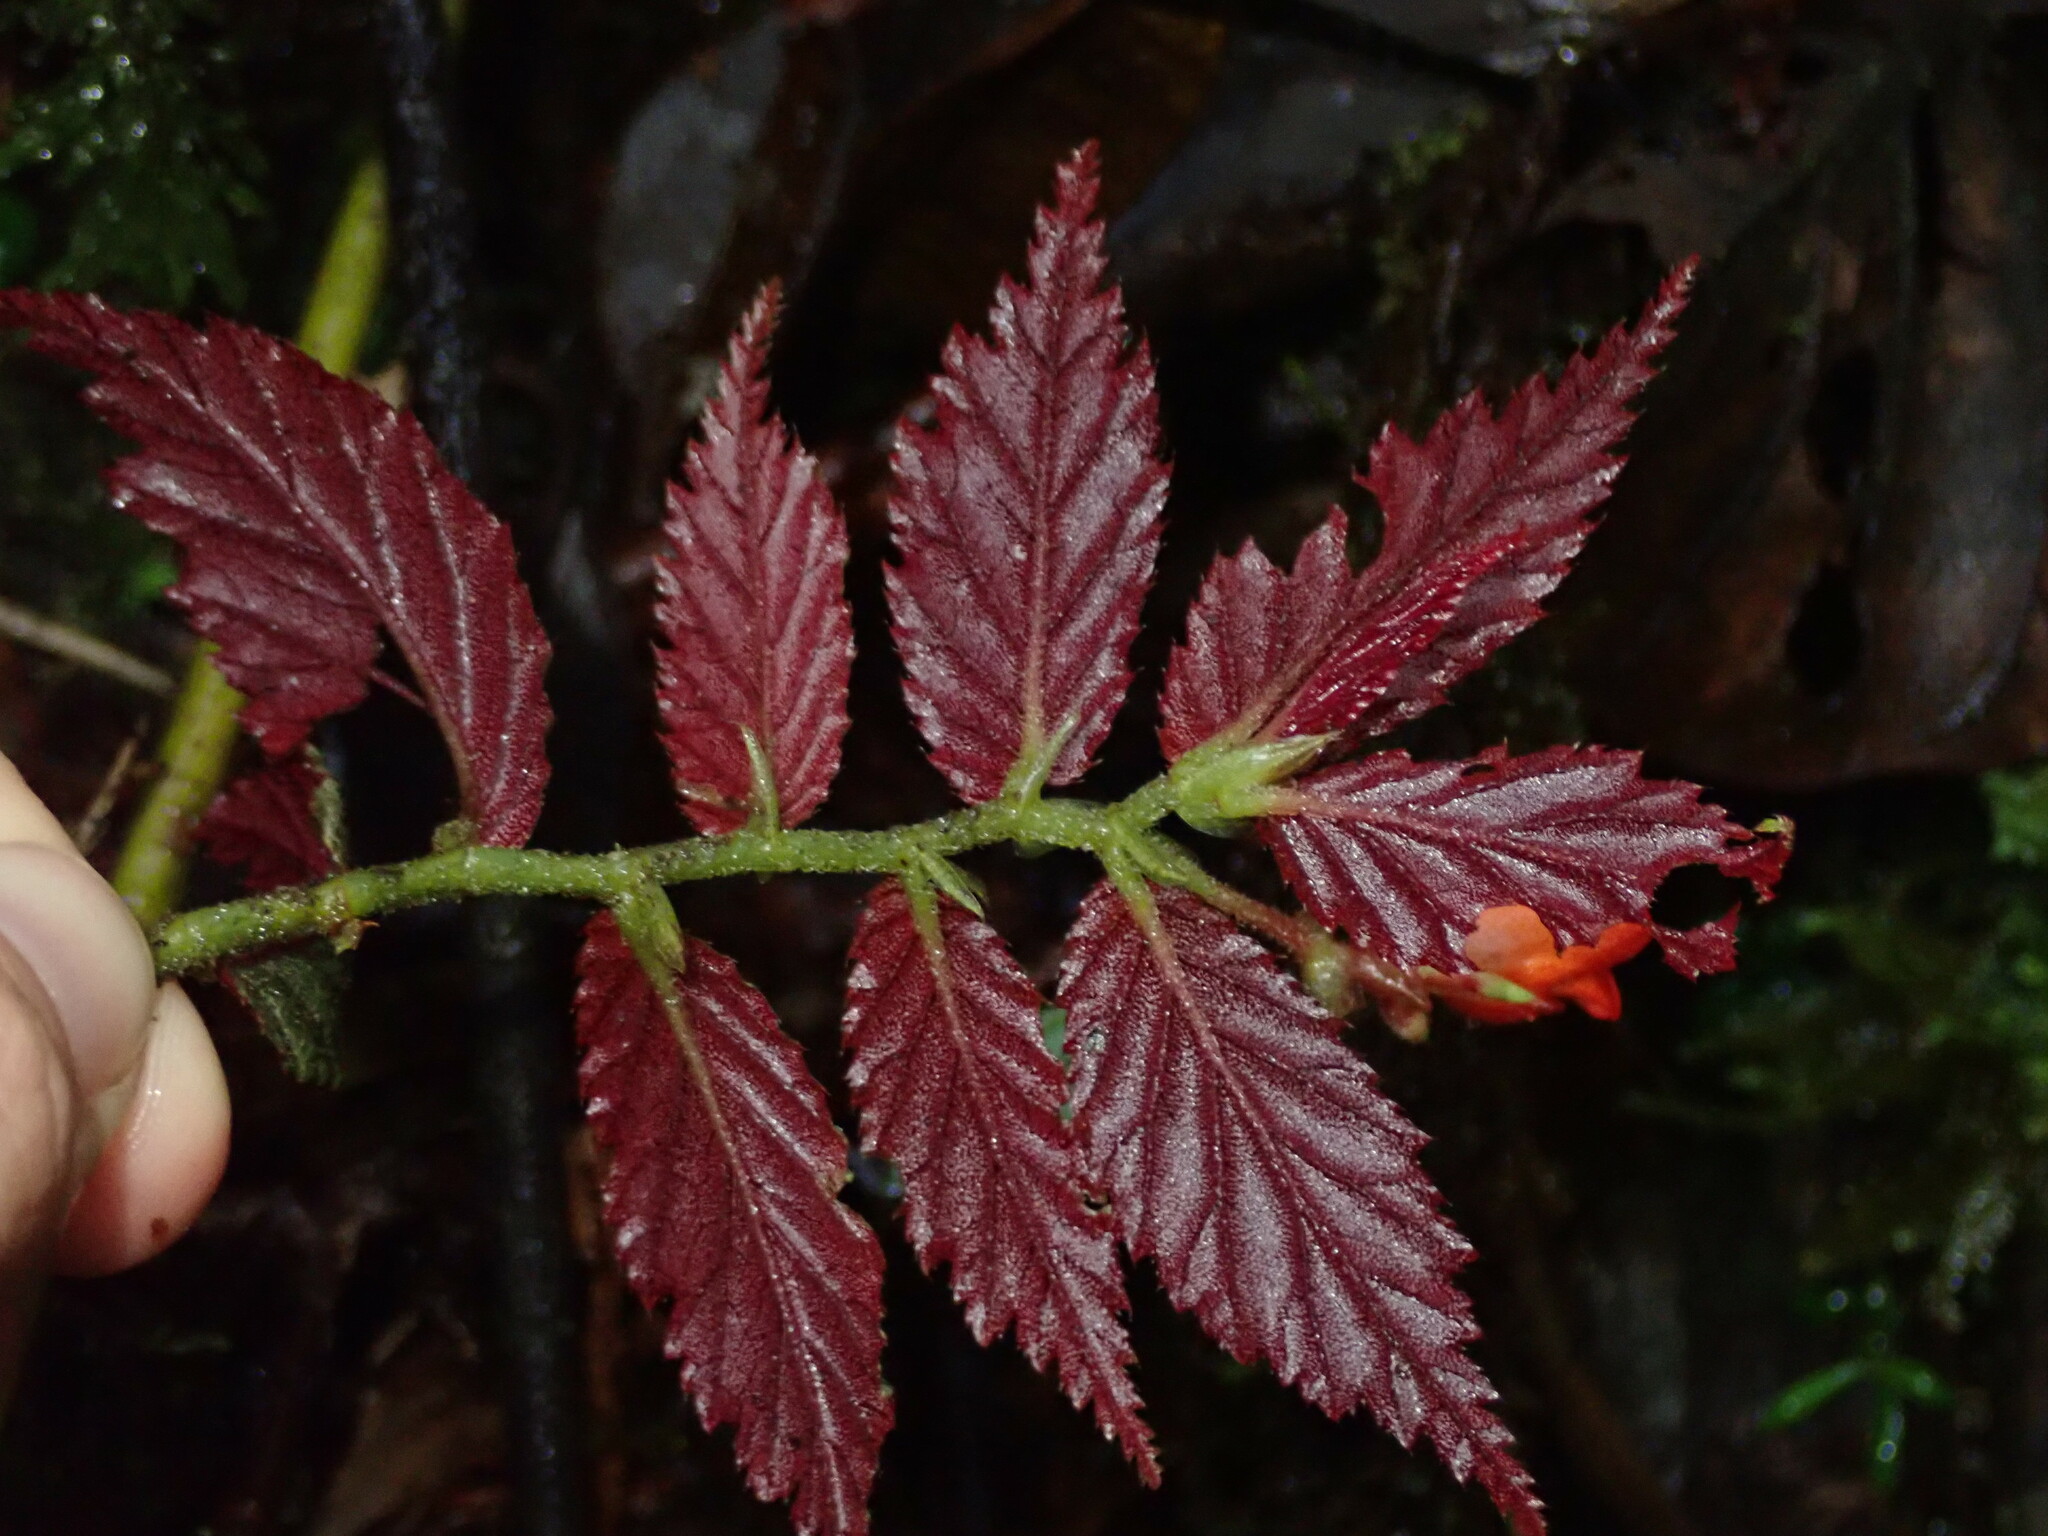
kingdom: Plantae
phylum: Tracheophyta
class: Magnoliopsida
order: Cucurbitales
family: Begoniaceae
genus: Begonia
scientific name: Begonia tetrandra
